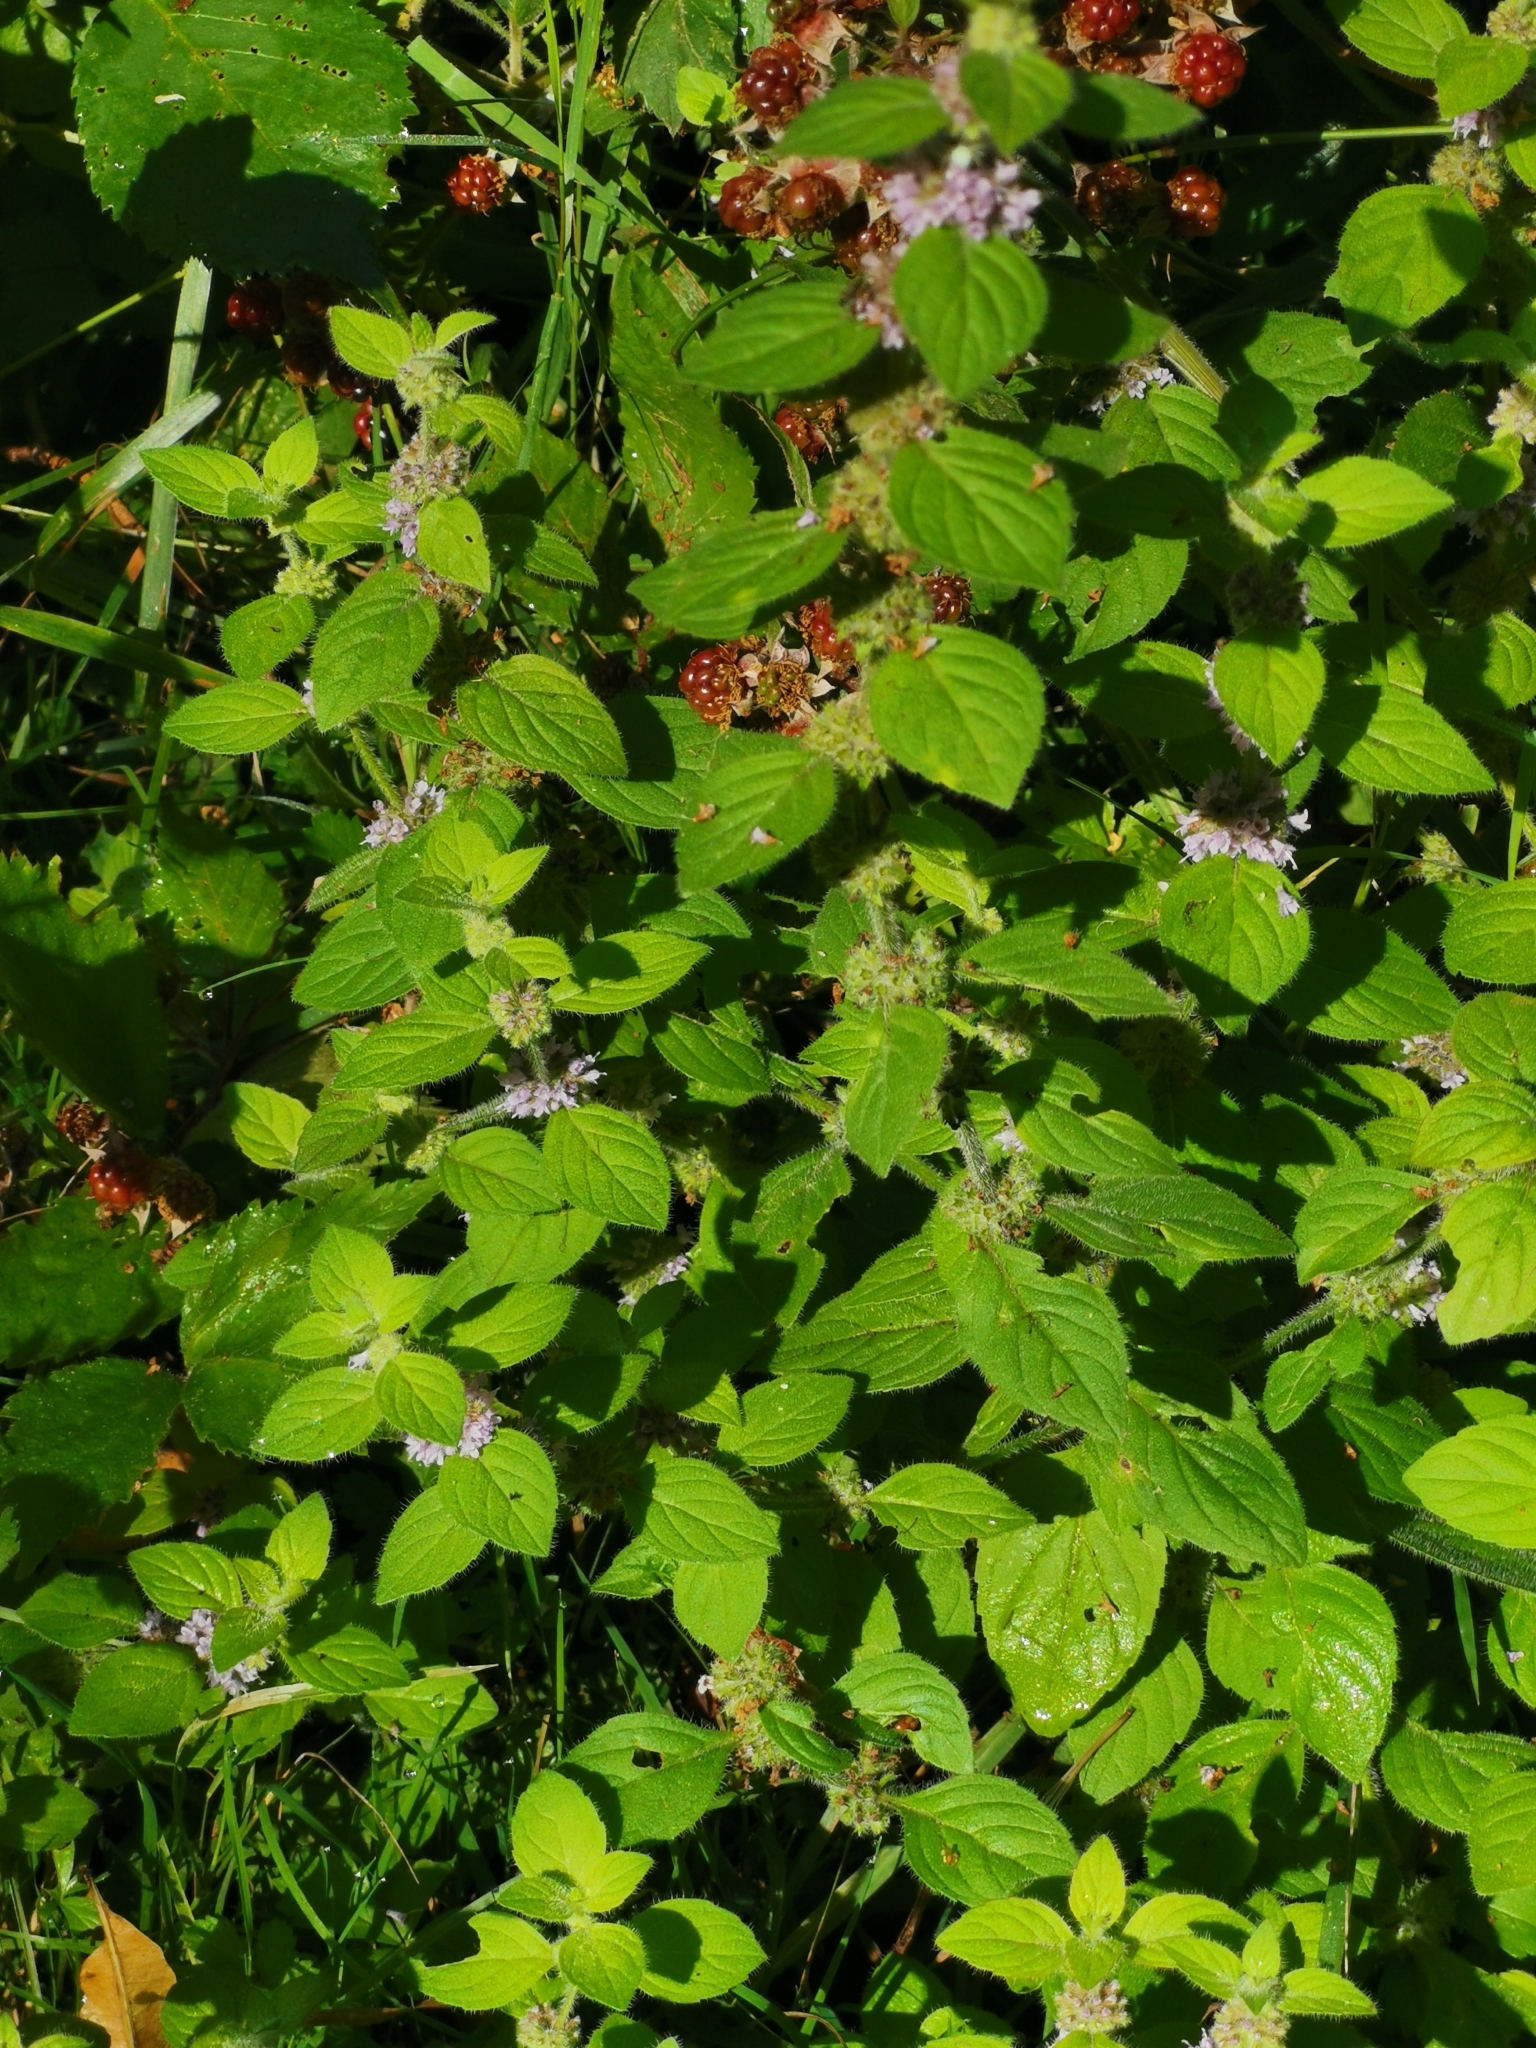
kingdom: Plantae
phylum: Tracheophyta
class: Magnoliopsida
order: Lamiales
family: Lamiaceae
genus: Mentha
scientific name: Mentha arvensis
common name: Corn mint
